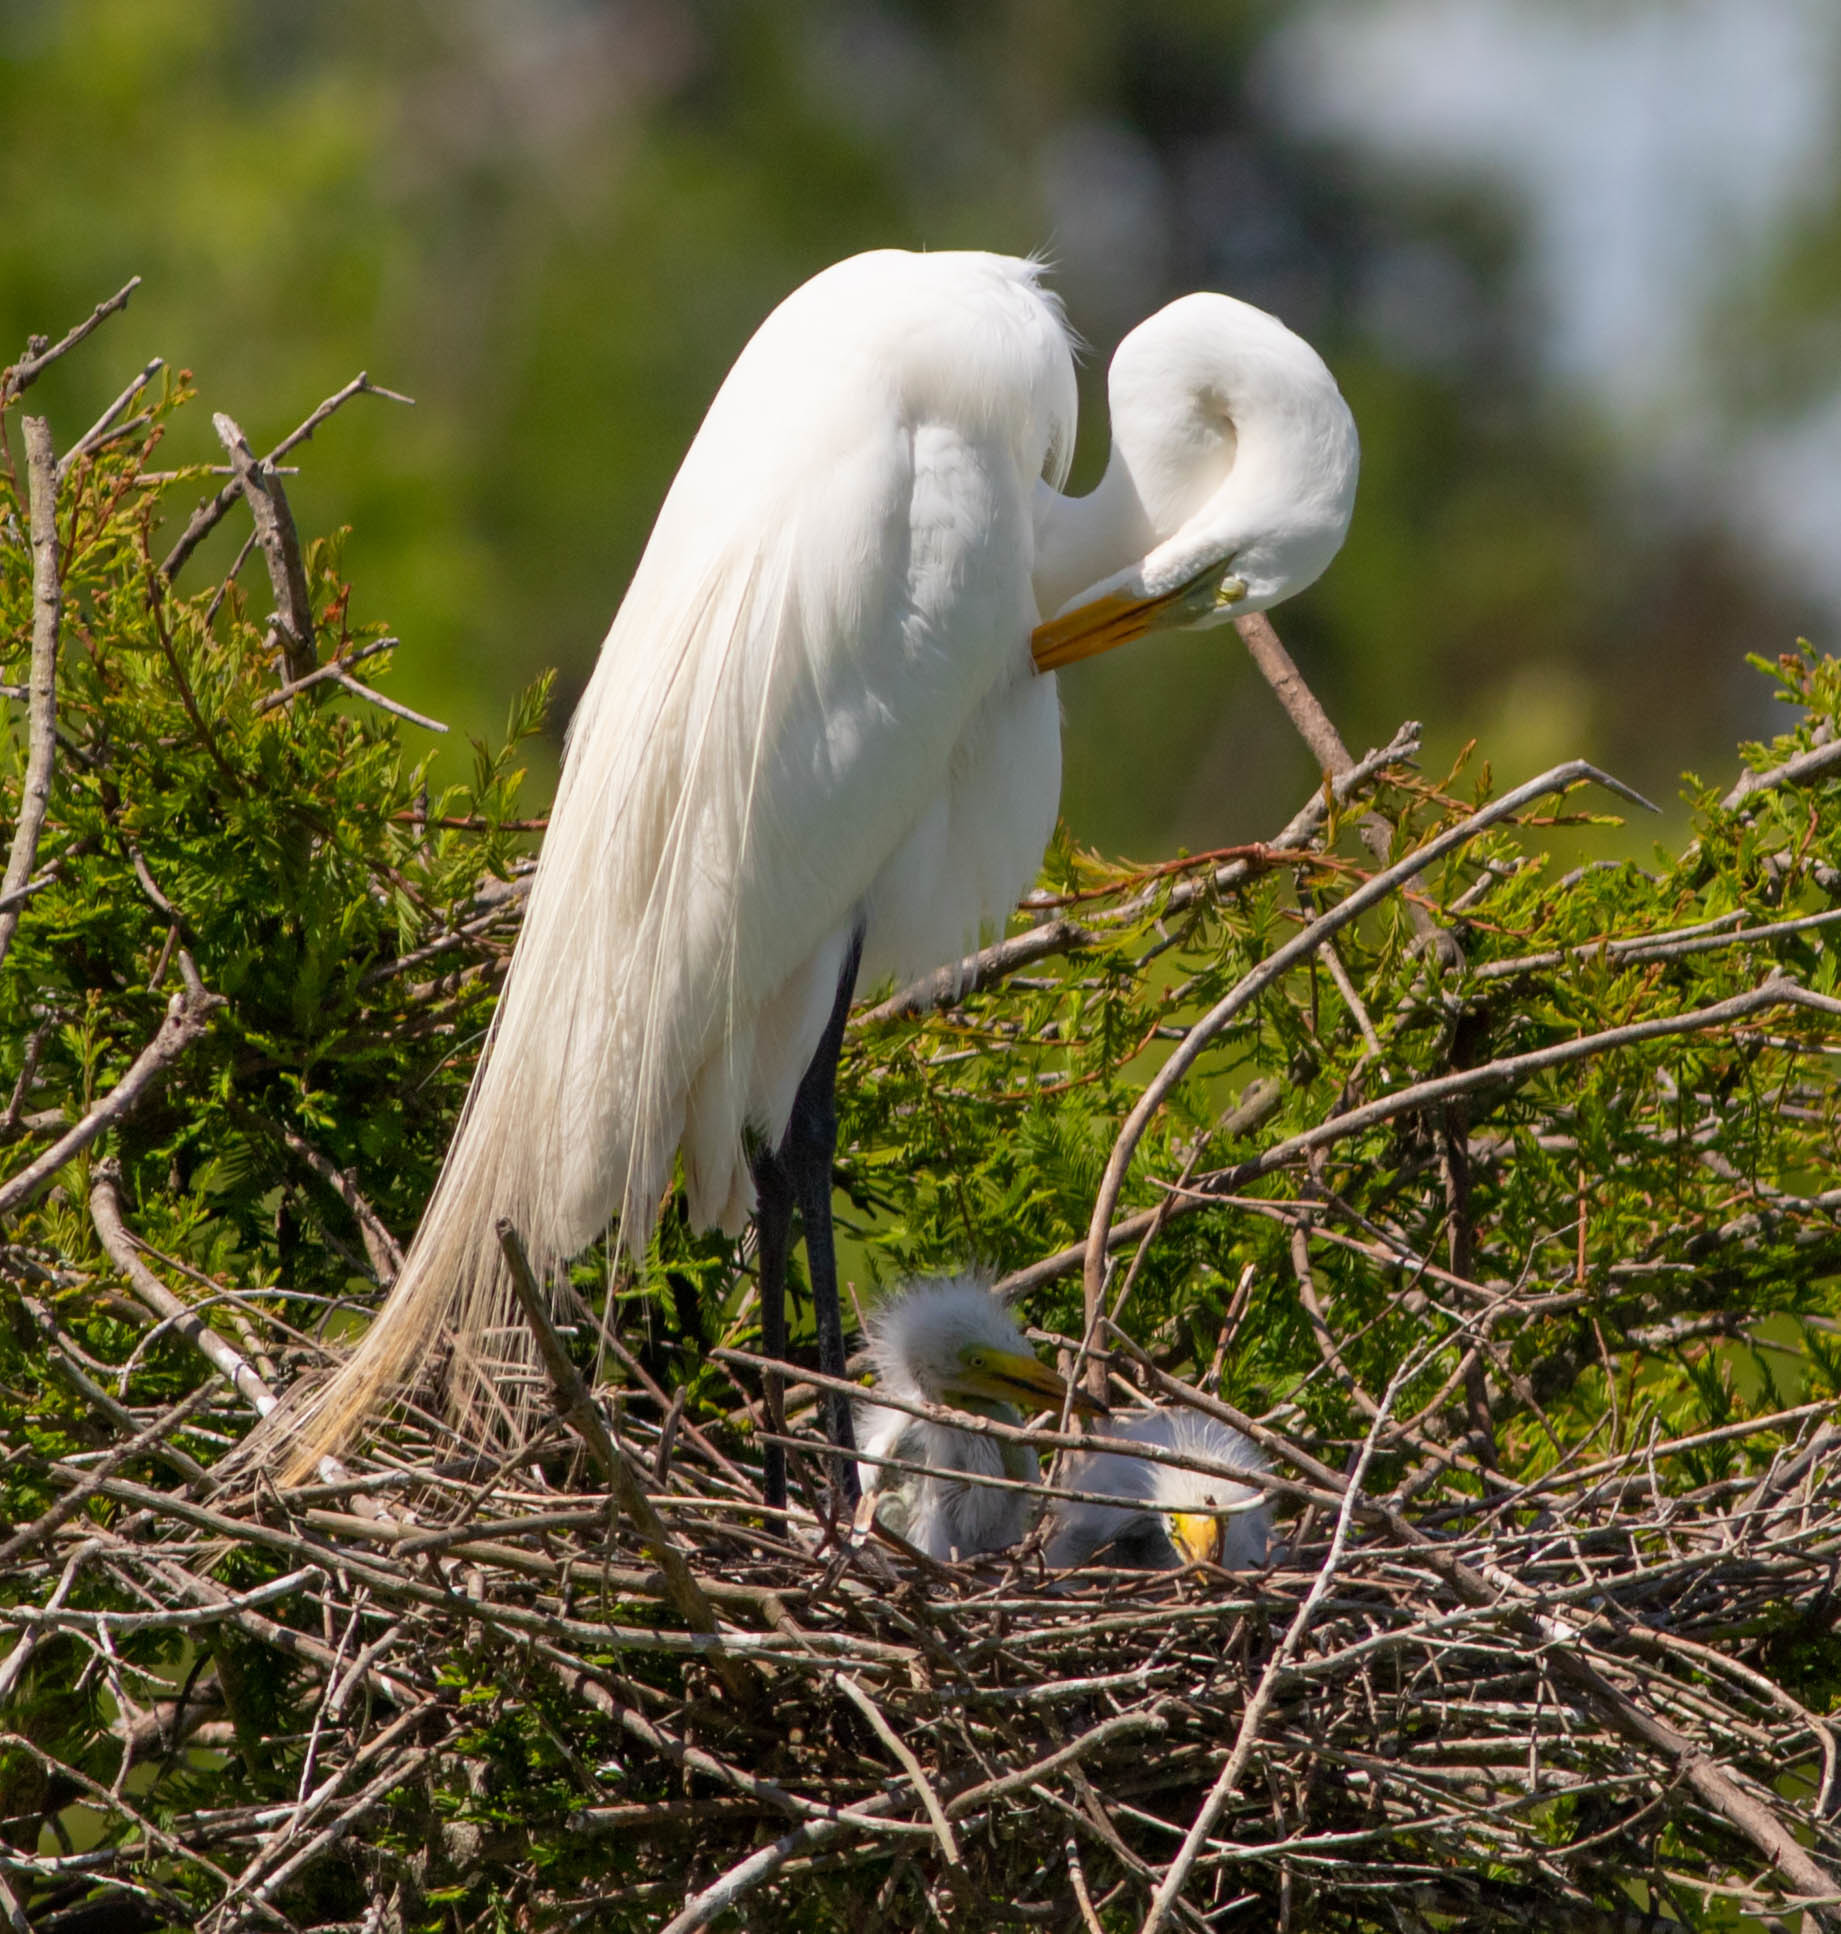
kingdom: Animalia
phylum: Chordata
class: Aves
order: Pelecaniformes
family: Ardeidae
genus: Ardea
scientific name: Ardea alba
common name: Great egret
